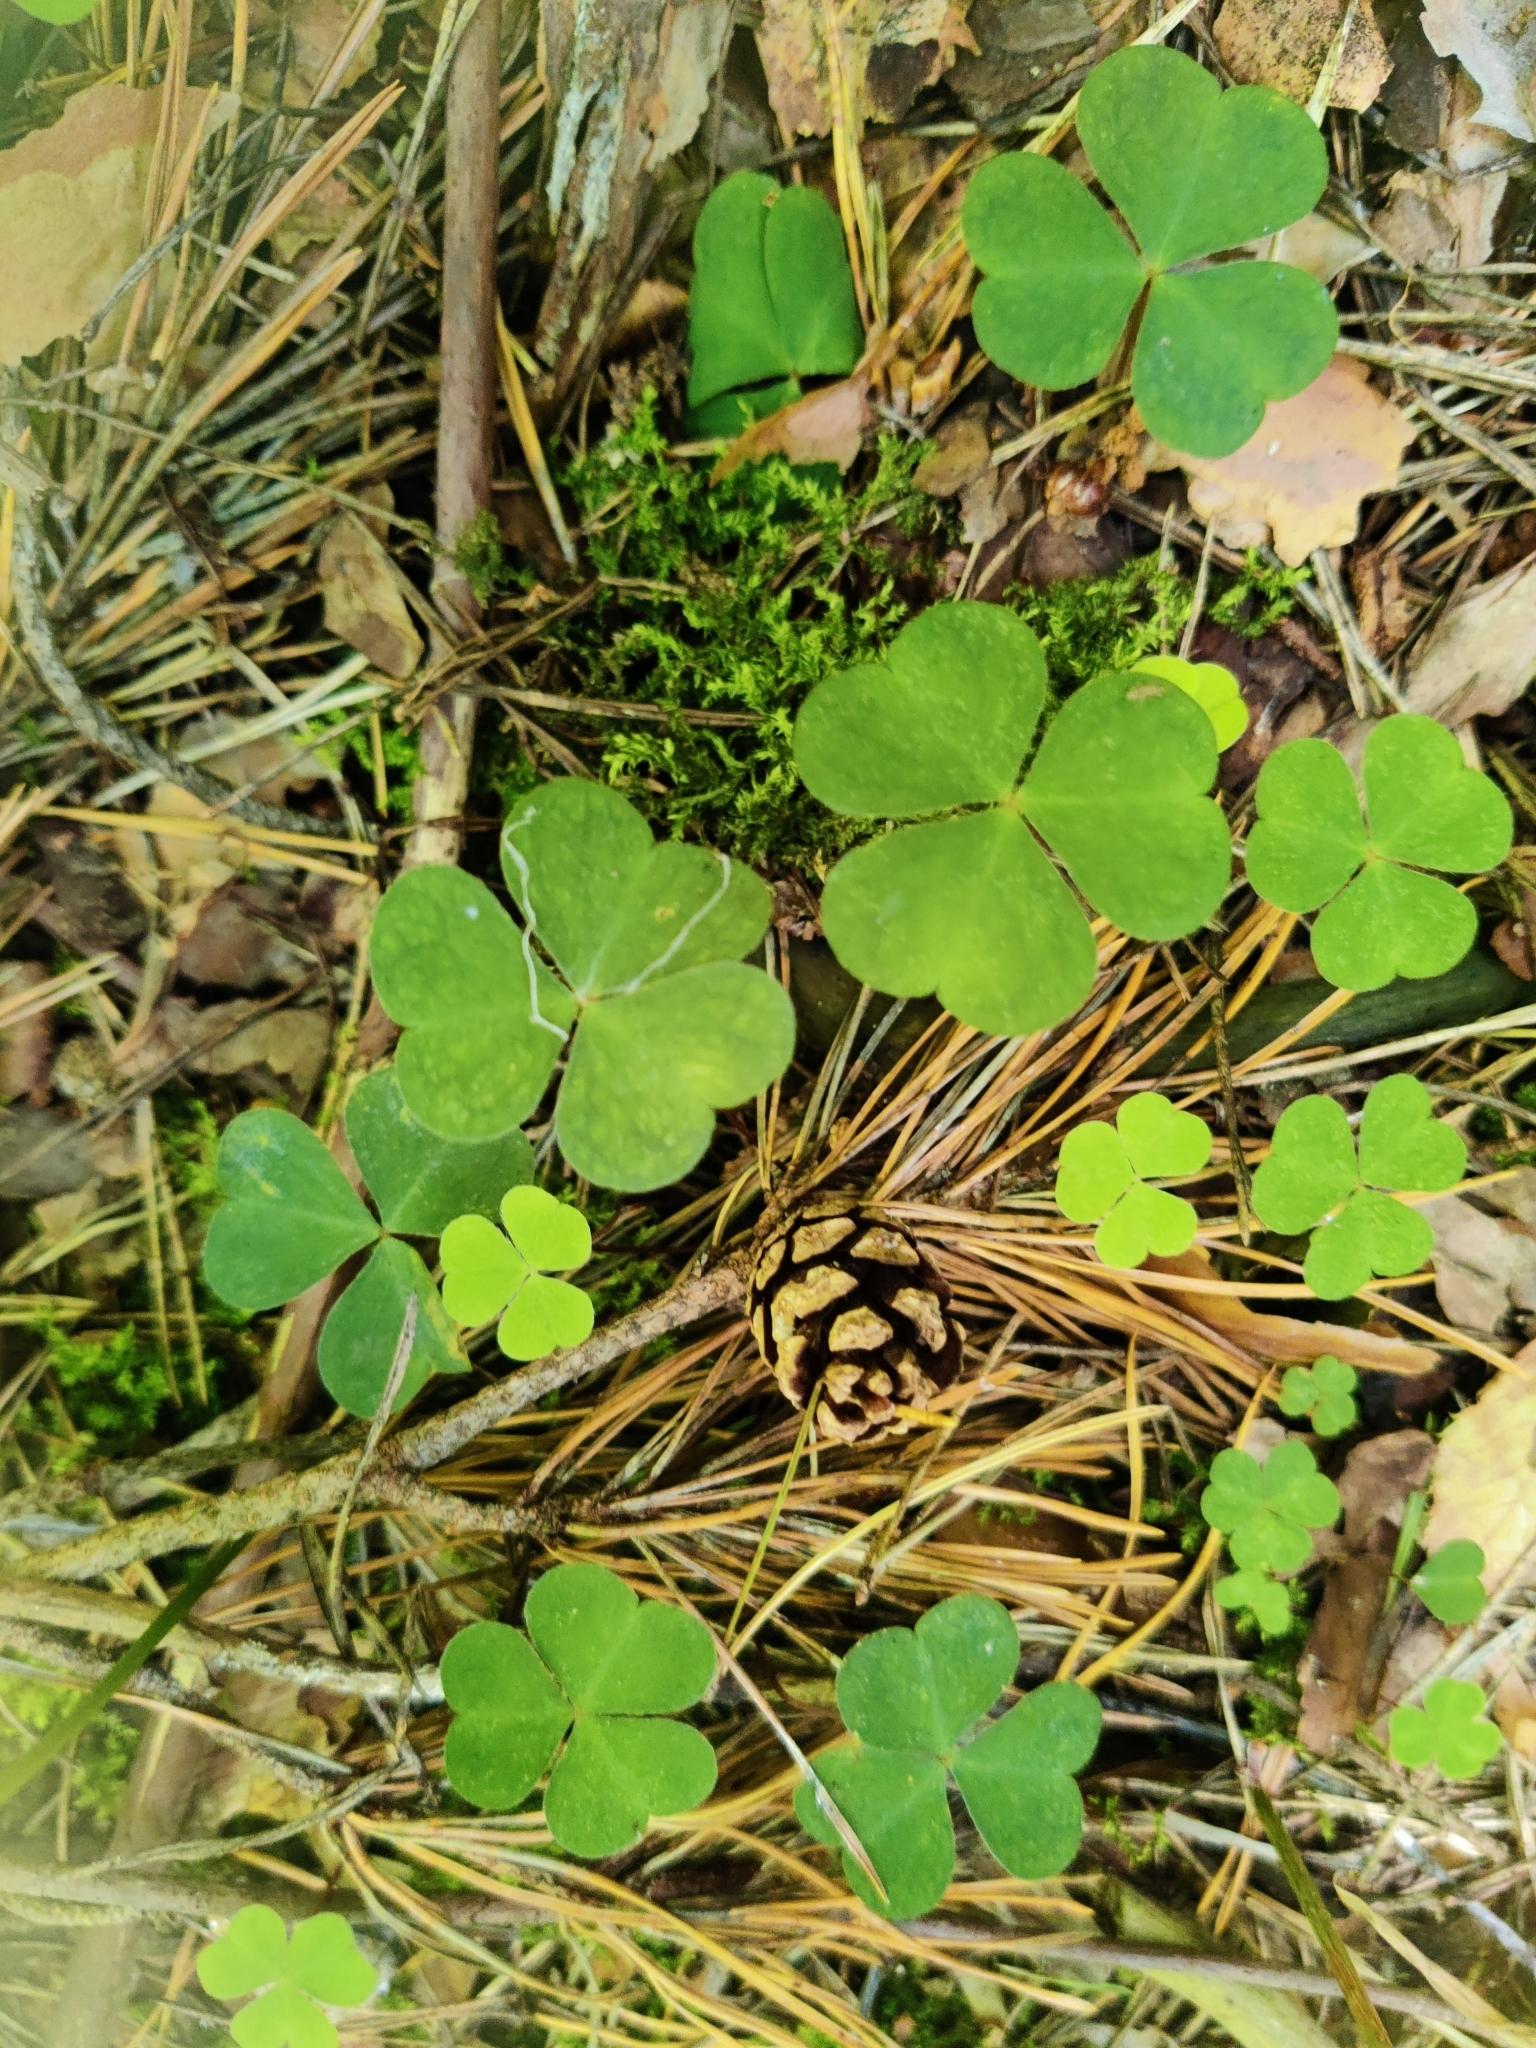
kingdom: Plantae
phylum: Tracheophyta
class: Magnoliopsida
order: Oxalidales
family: Oxalidaceae
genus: Oxalis
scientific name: Oxalis acetosella
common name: Wood-sorrel
